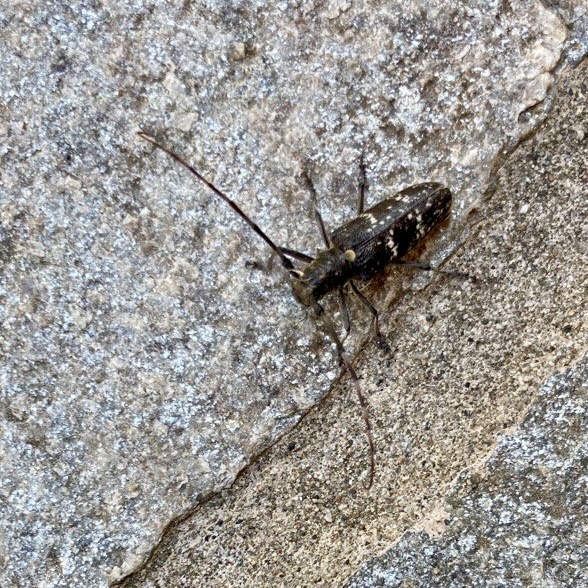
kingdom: Animalia
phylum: Arthropoda
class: Insecta
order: Coleoptera
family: Cerambycidae
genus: Monochamus
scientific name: Monochamus sartor
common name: Pine sawyer
